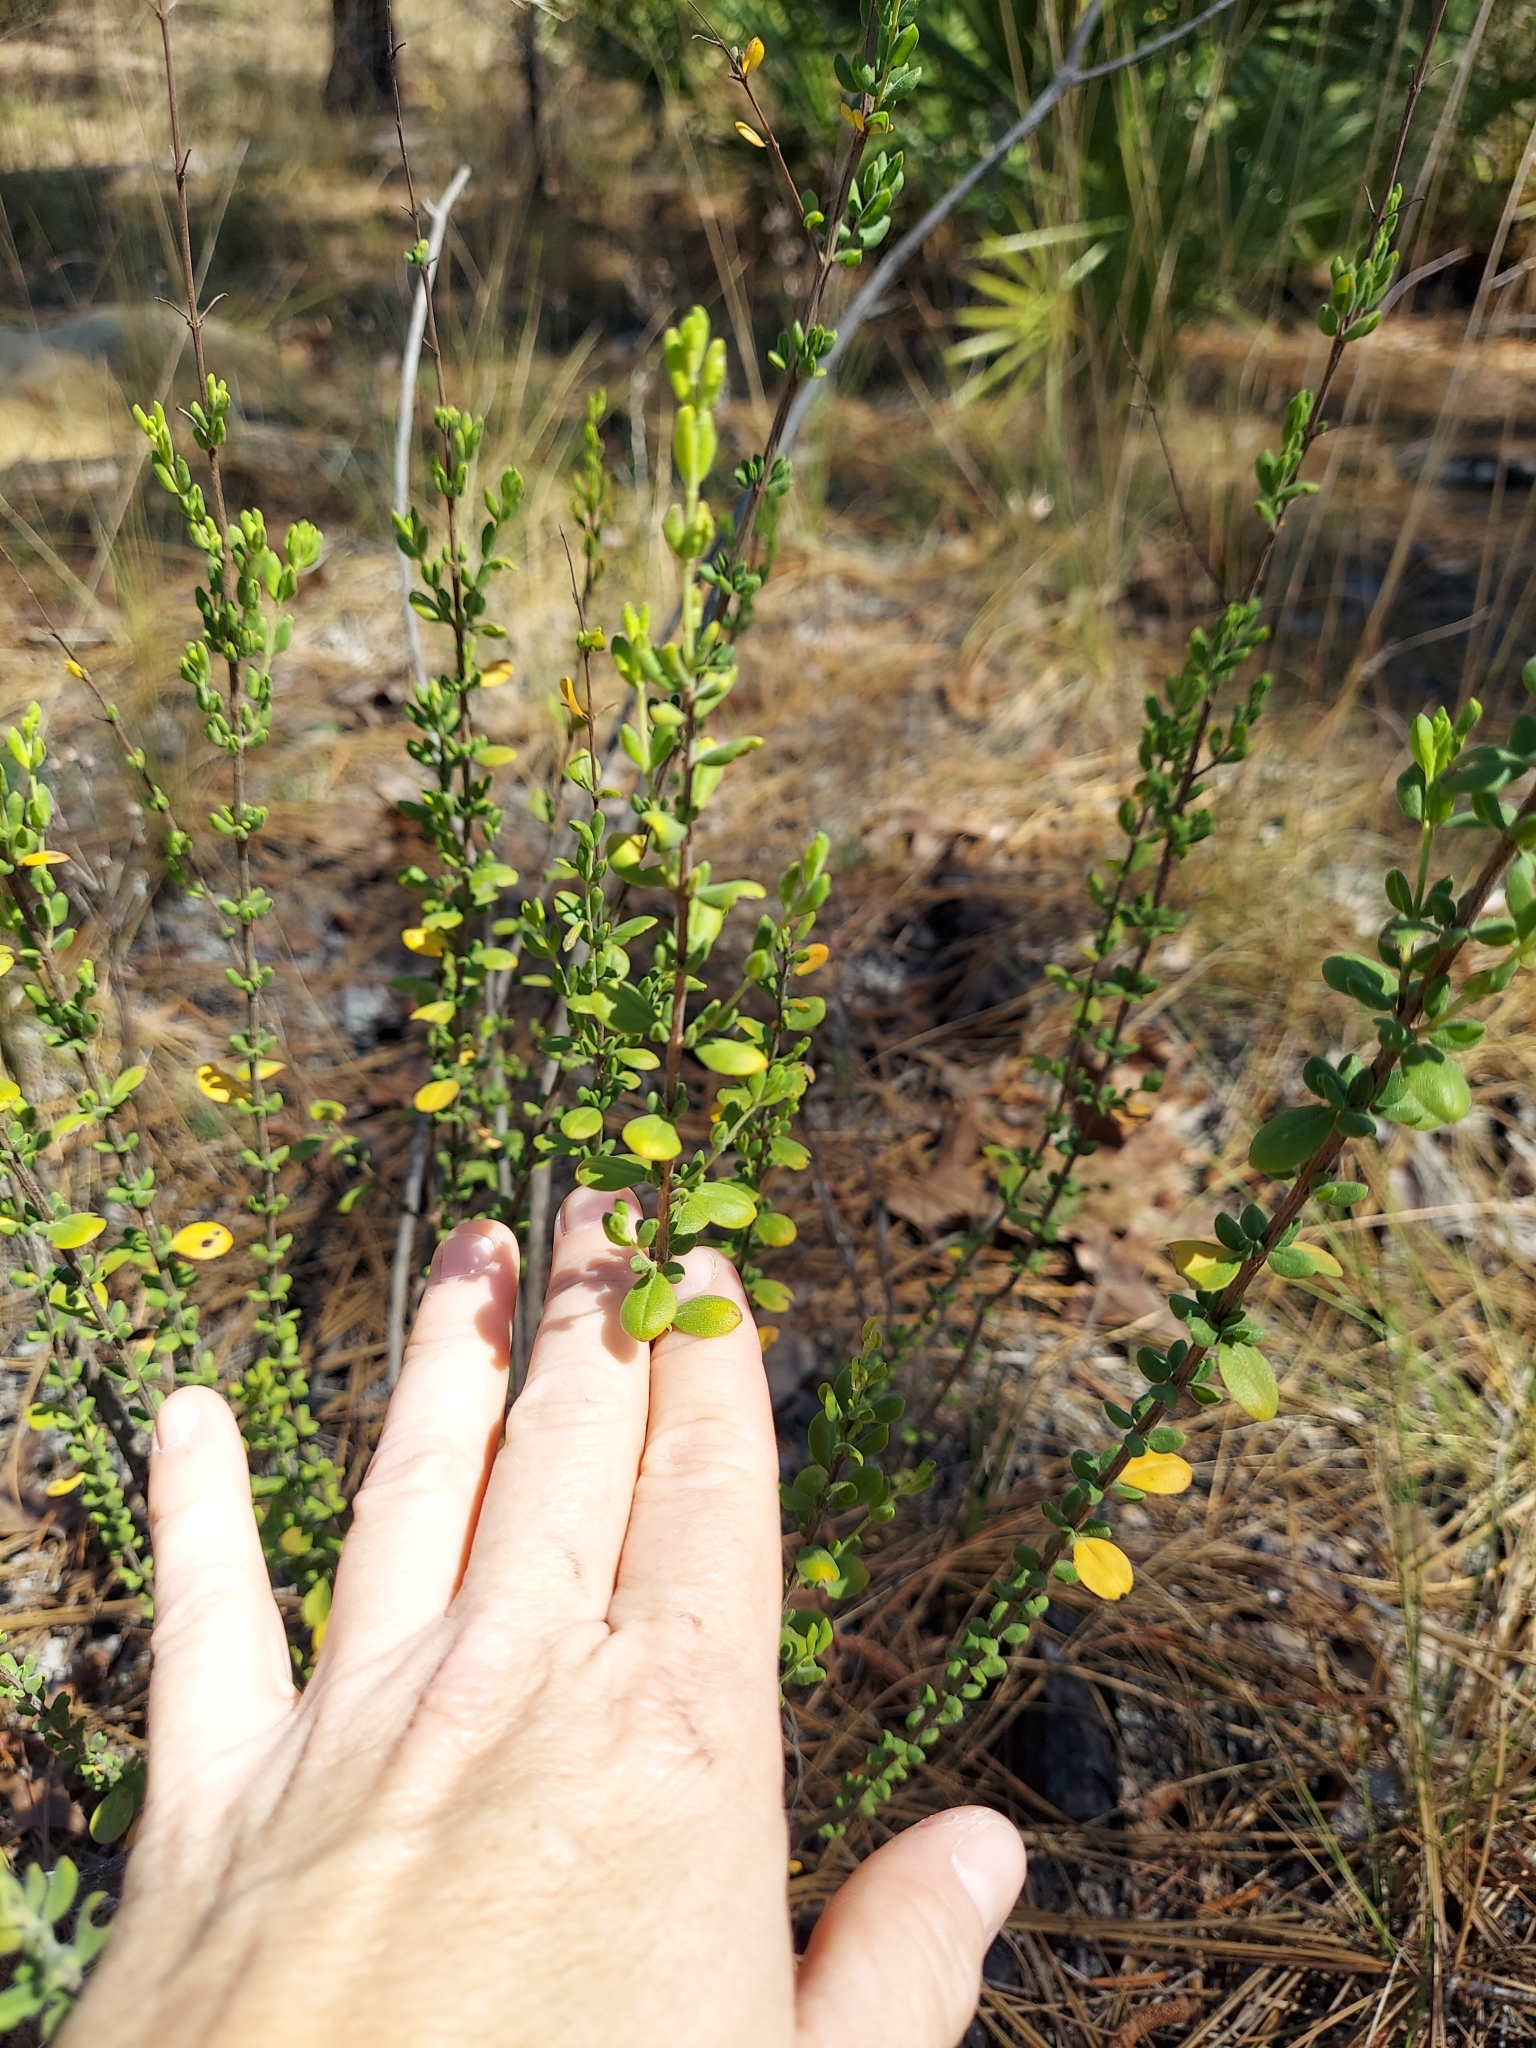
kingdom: Plantae
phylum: Tracheophyta
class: Magnoliopsida
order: Lamiales
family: Lamiaceae
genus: Clinopodium
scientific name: Clinopodium coccineum
